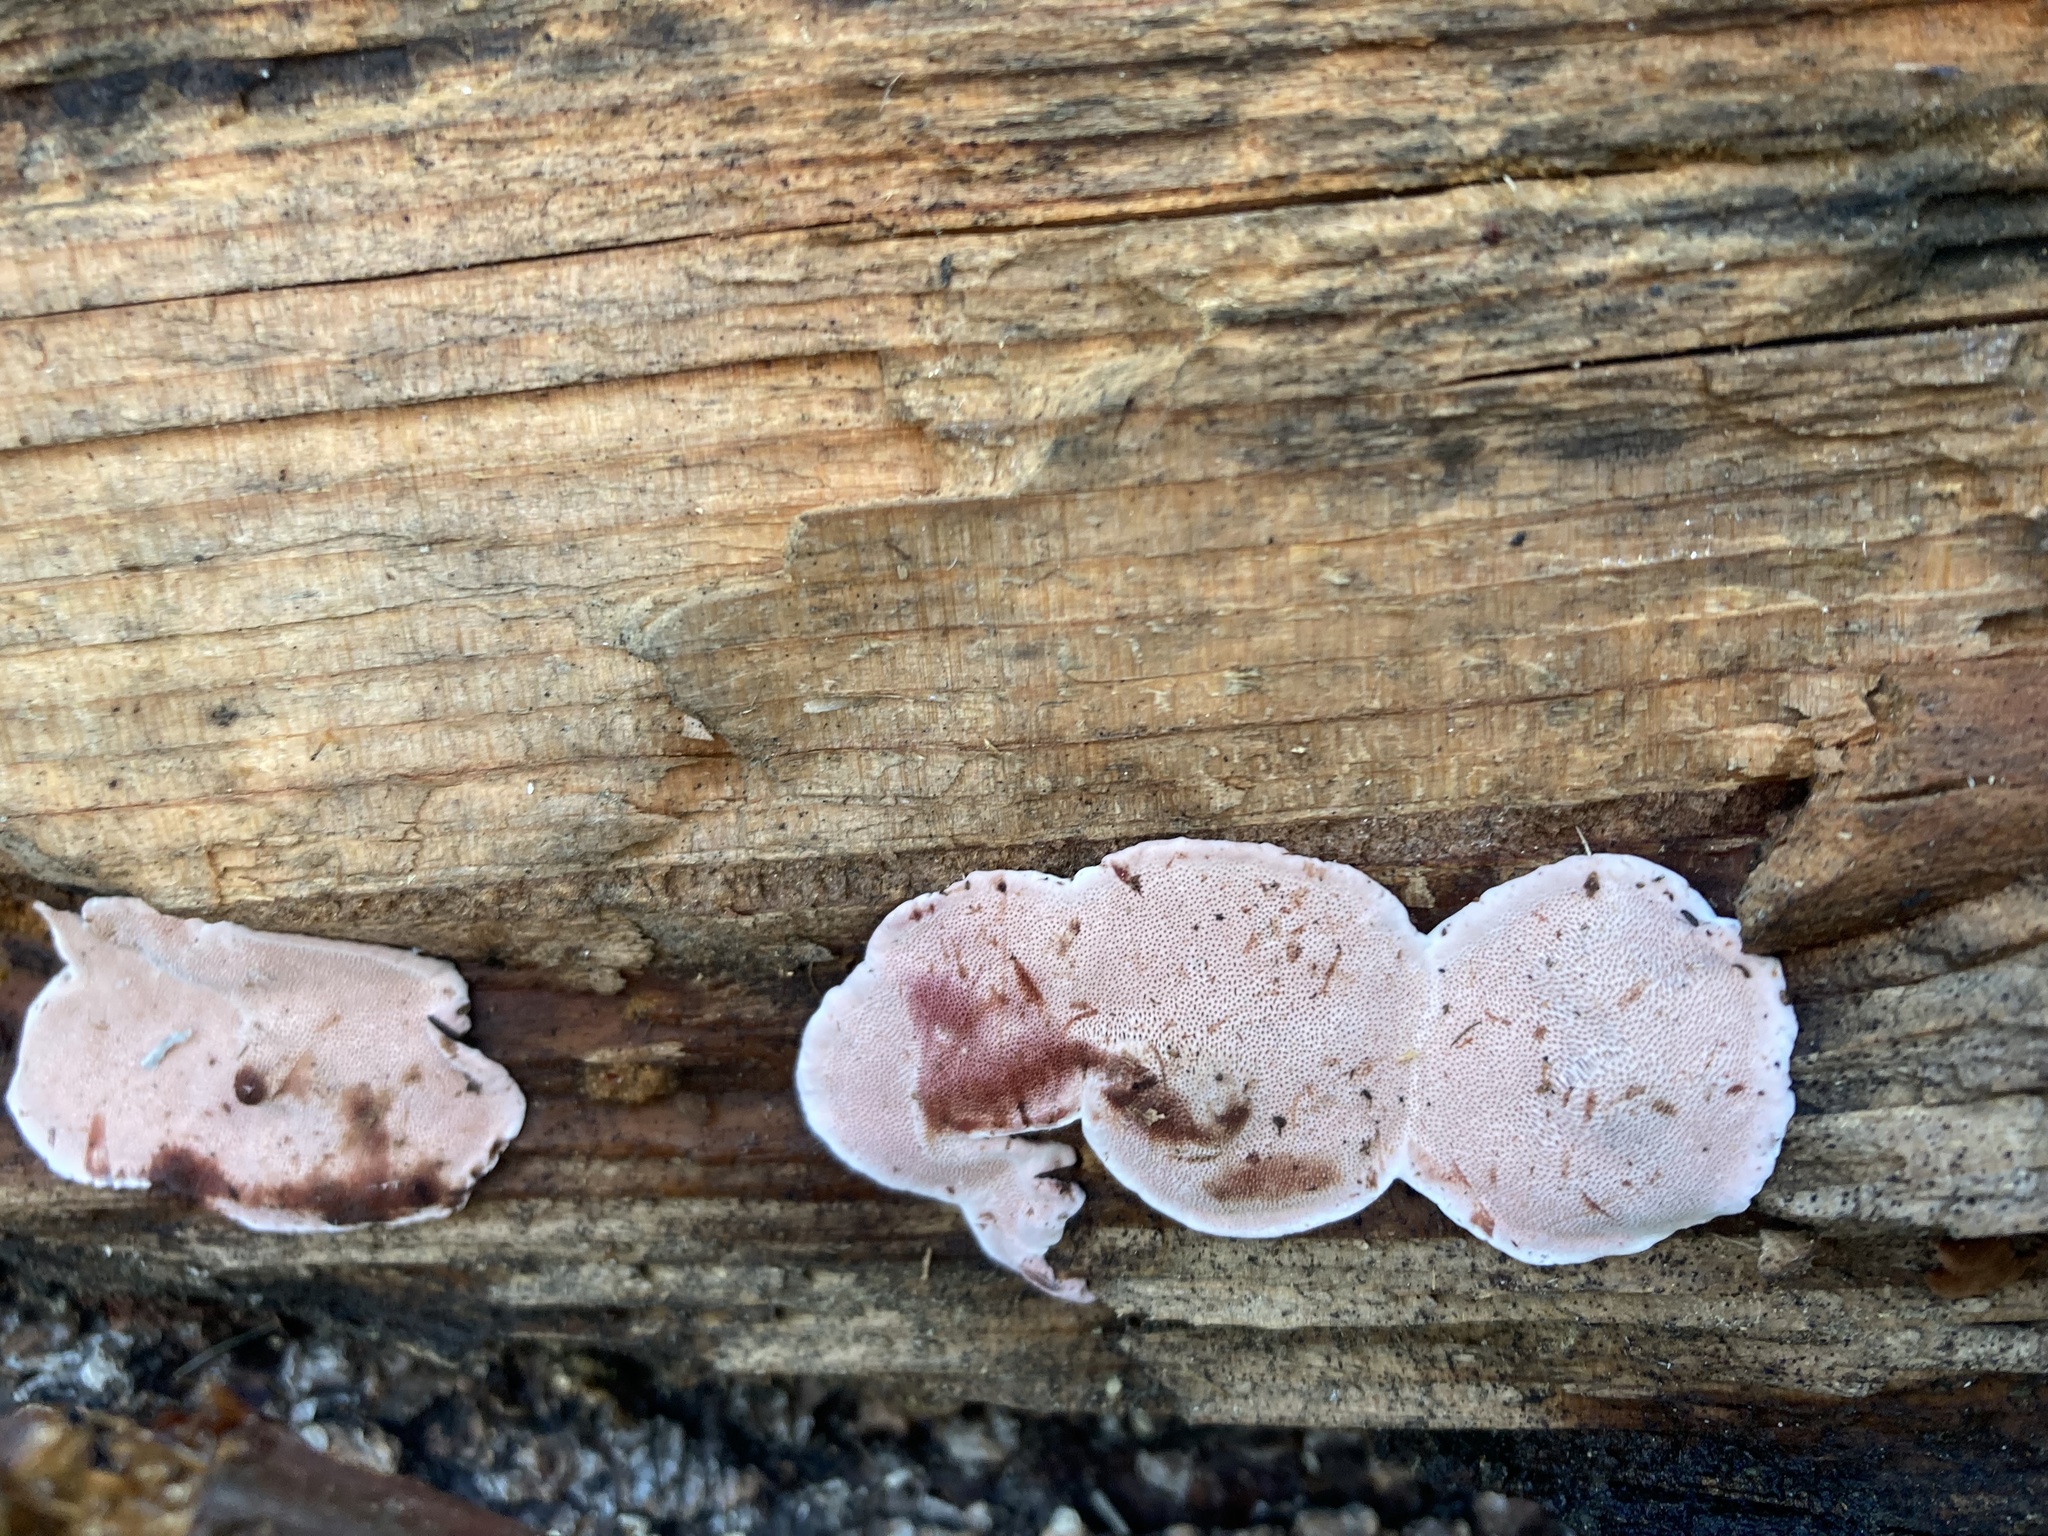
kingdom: Fungi
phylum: Basidiomycota
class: Agaricomycetes
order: Polyporales
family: Fomitopsidaceae
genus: Rhodofomes
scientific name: Rhodofomes cajanderi
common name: Rosy conk
